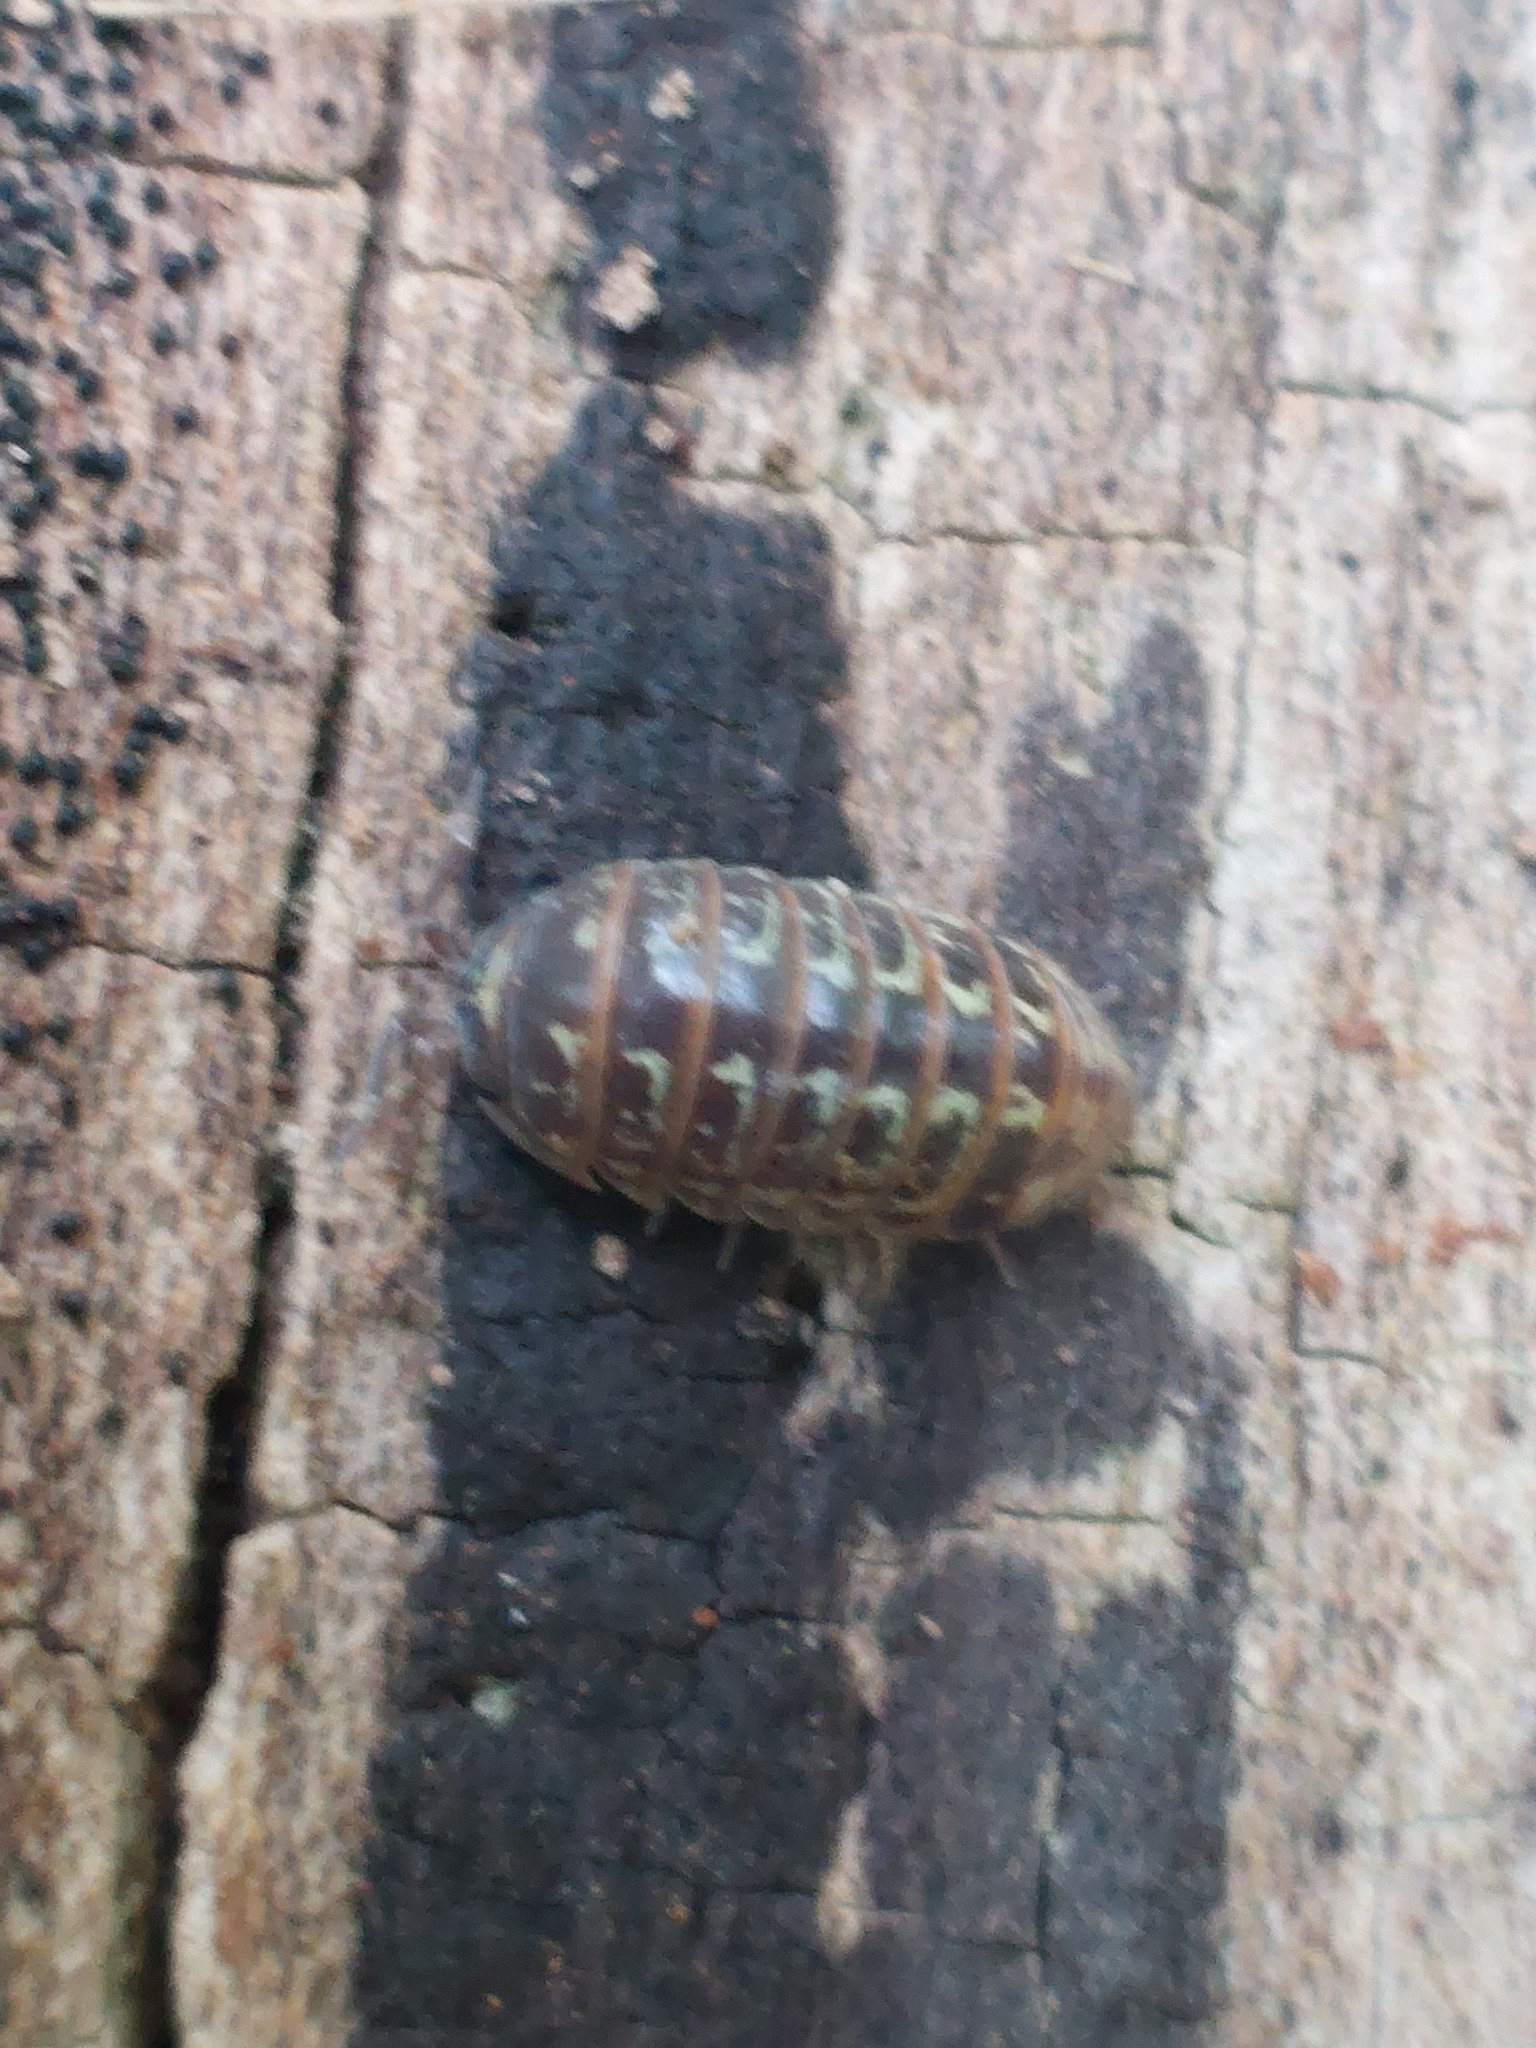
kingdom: Animalia
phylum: Arthropoda
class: Malacostraca
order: Isopoda
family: Armadillidiidae
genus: Armadillidium
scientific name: Armadillidium pictum
